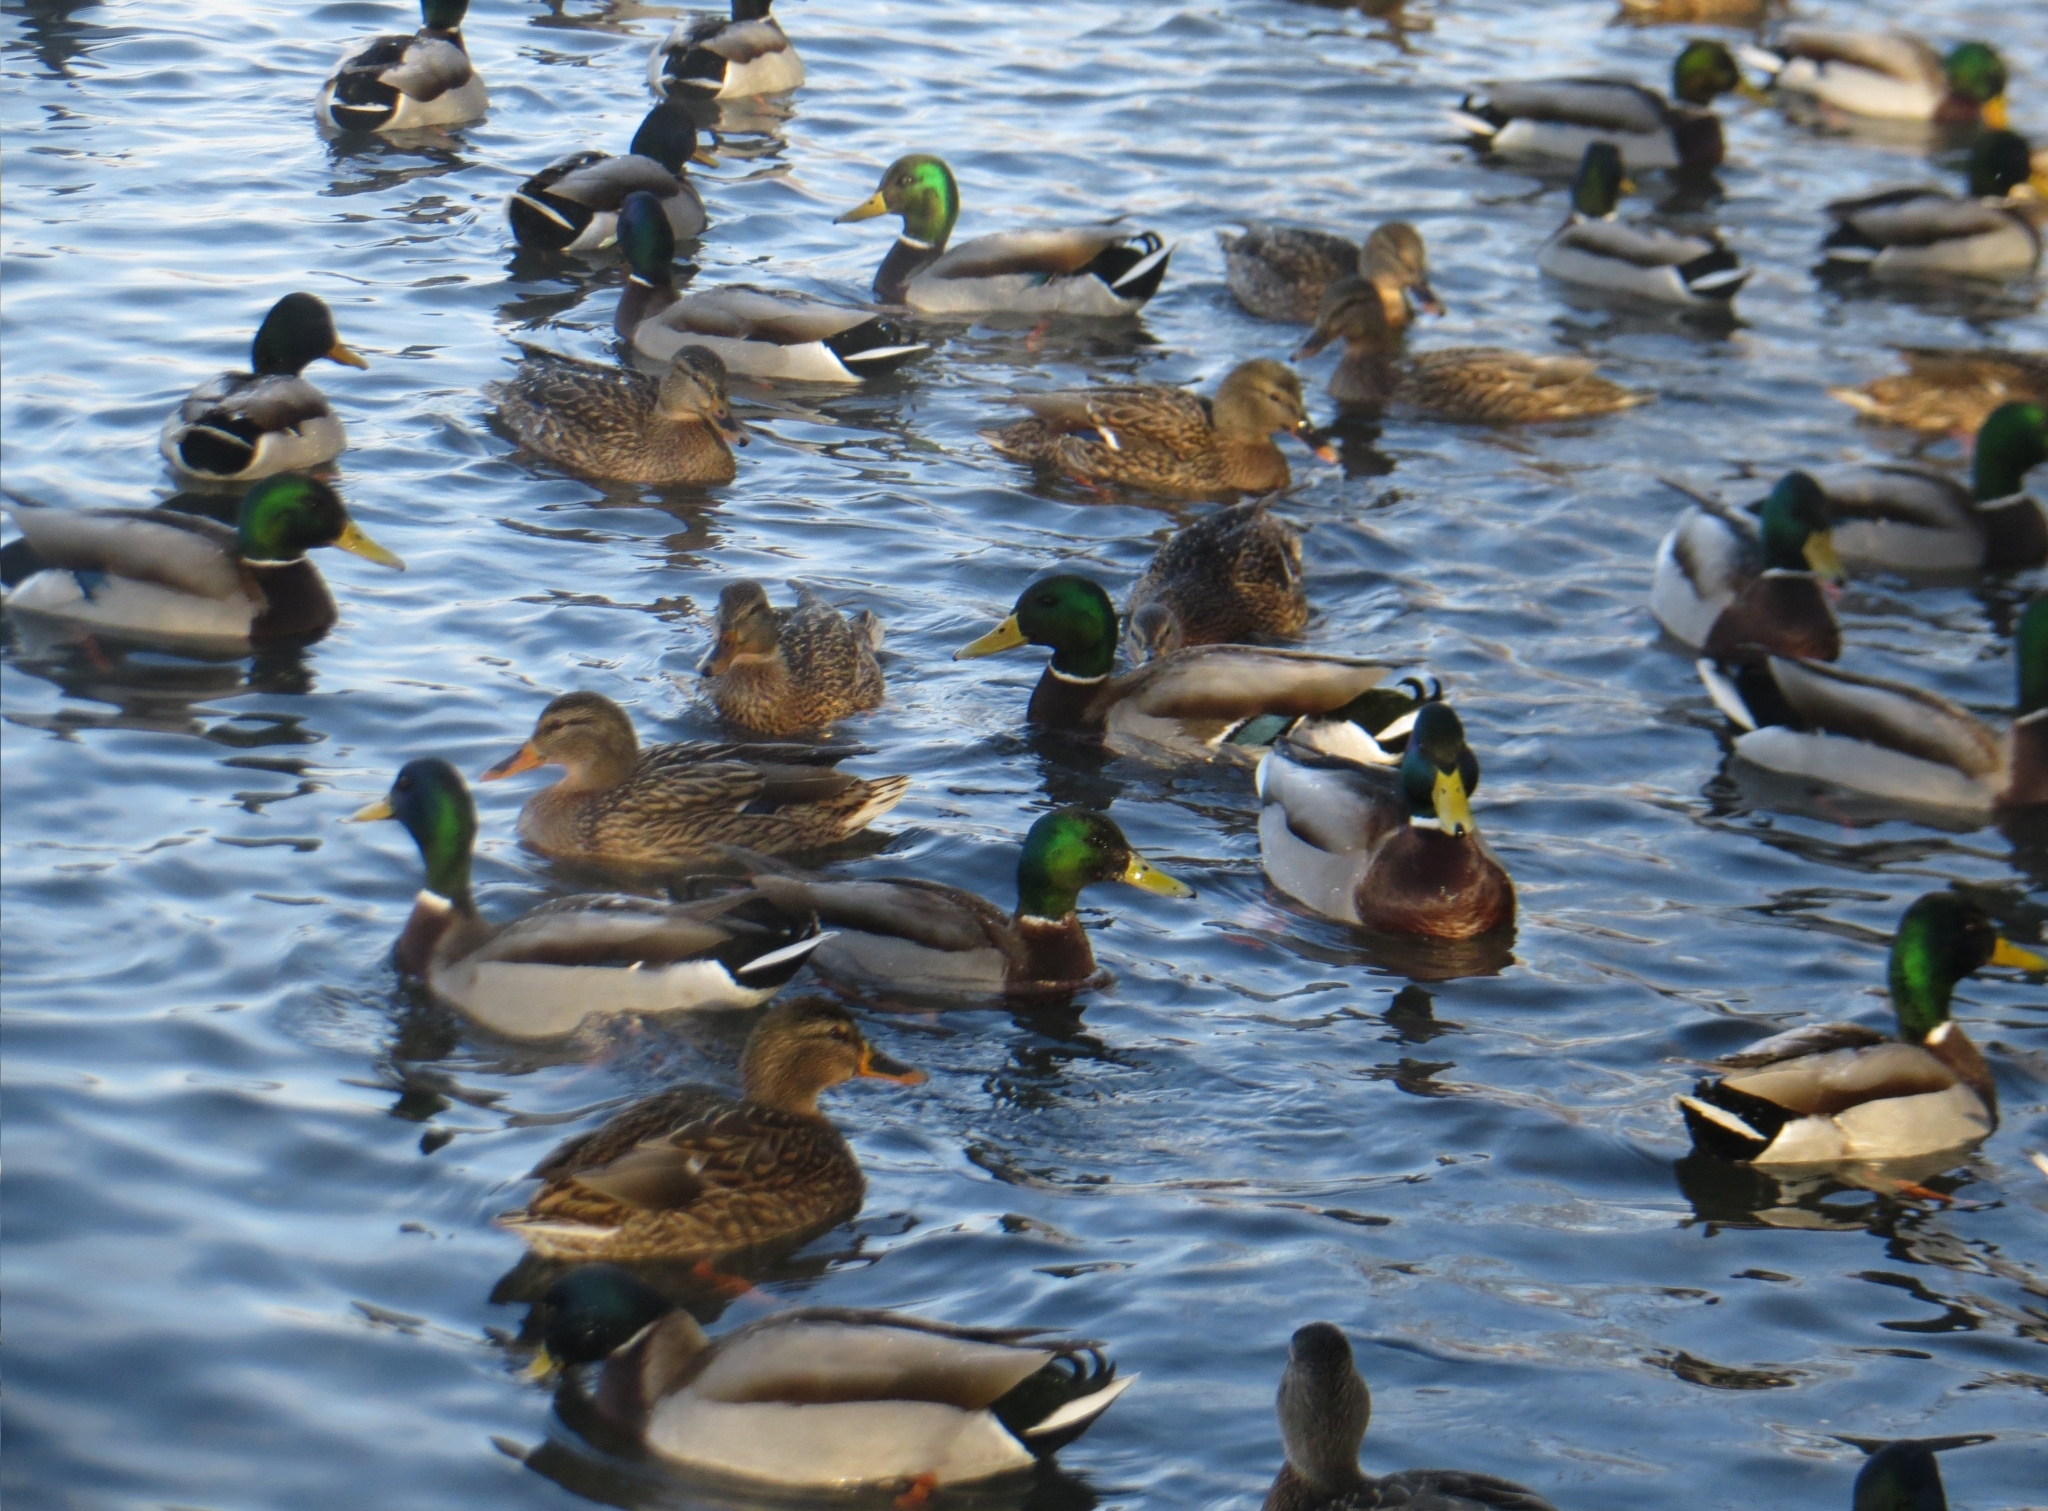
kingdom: Animalia
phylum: Chordata
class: Aves
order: Anseriformes
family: Anatidae
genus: Anas
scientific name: Anas platyrhynchos
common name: Mallard
